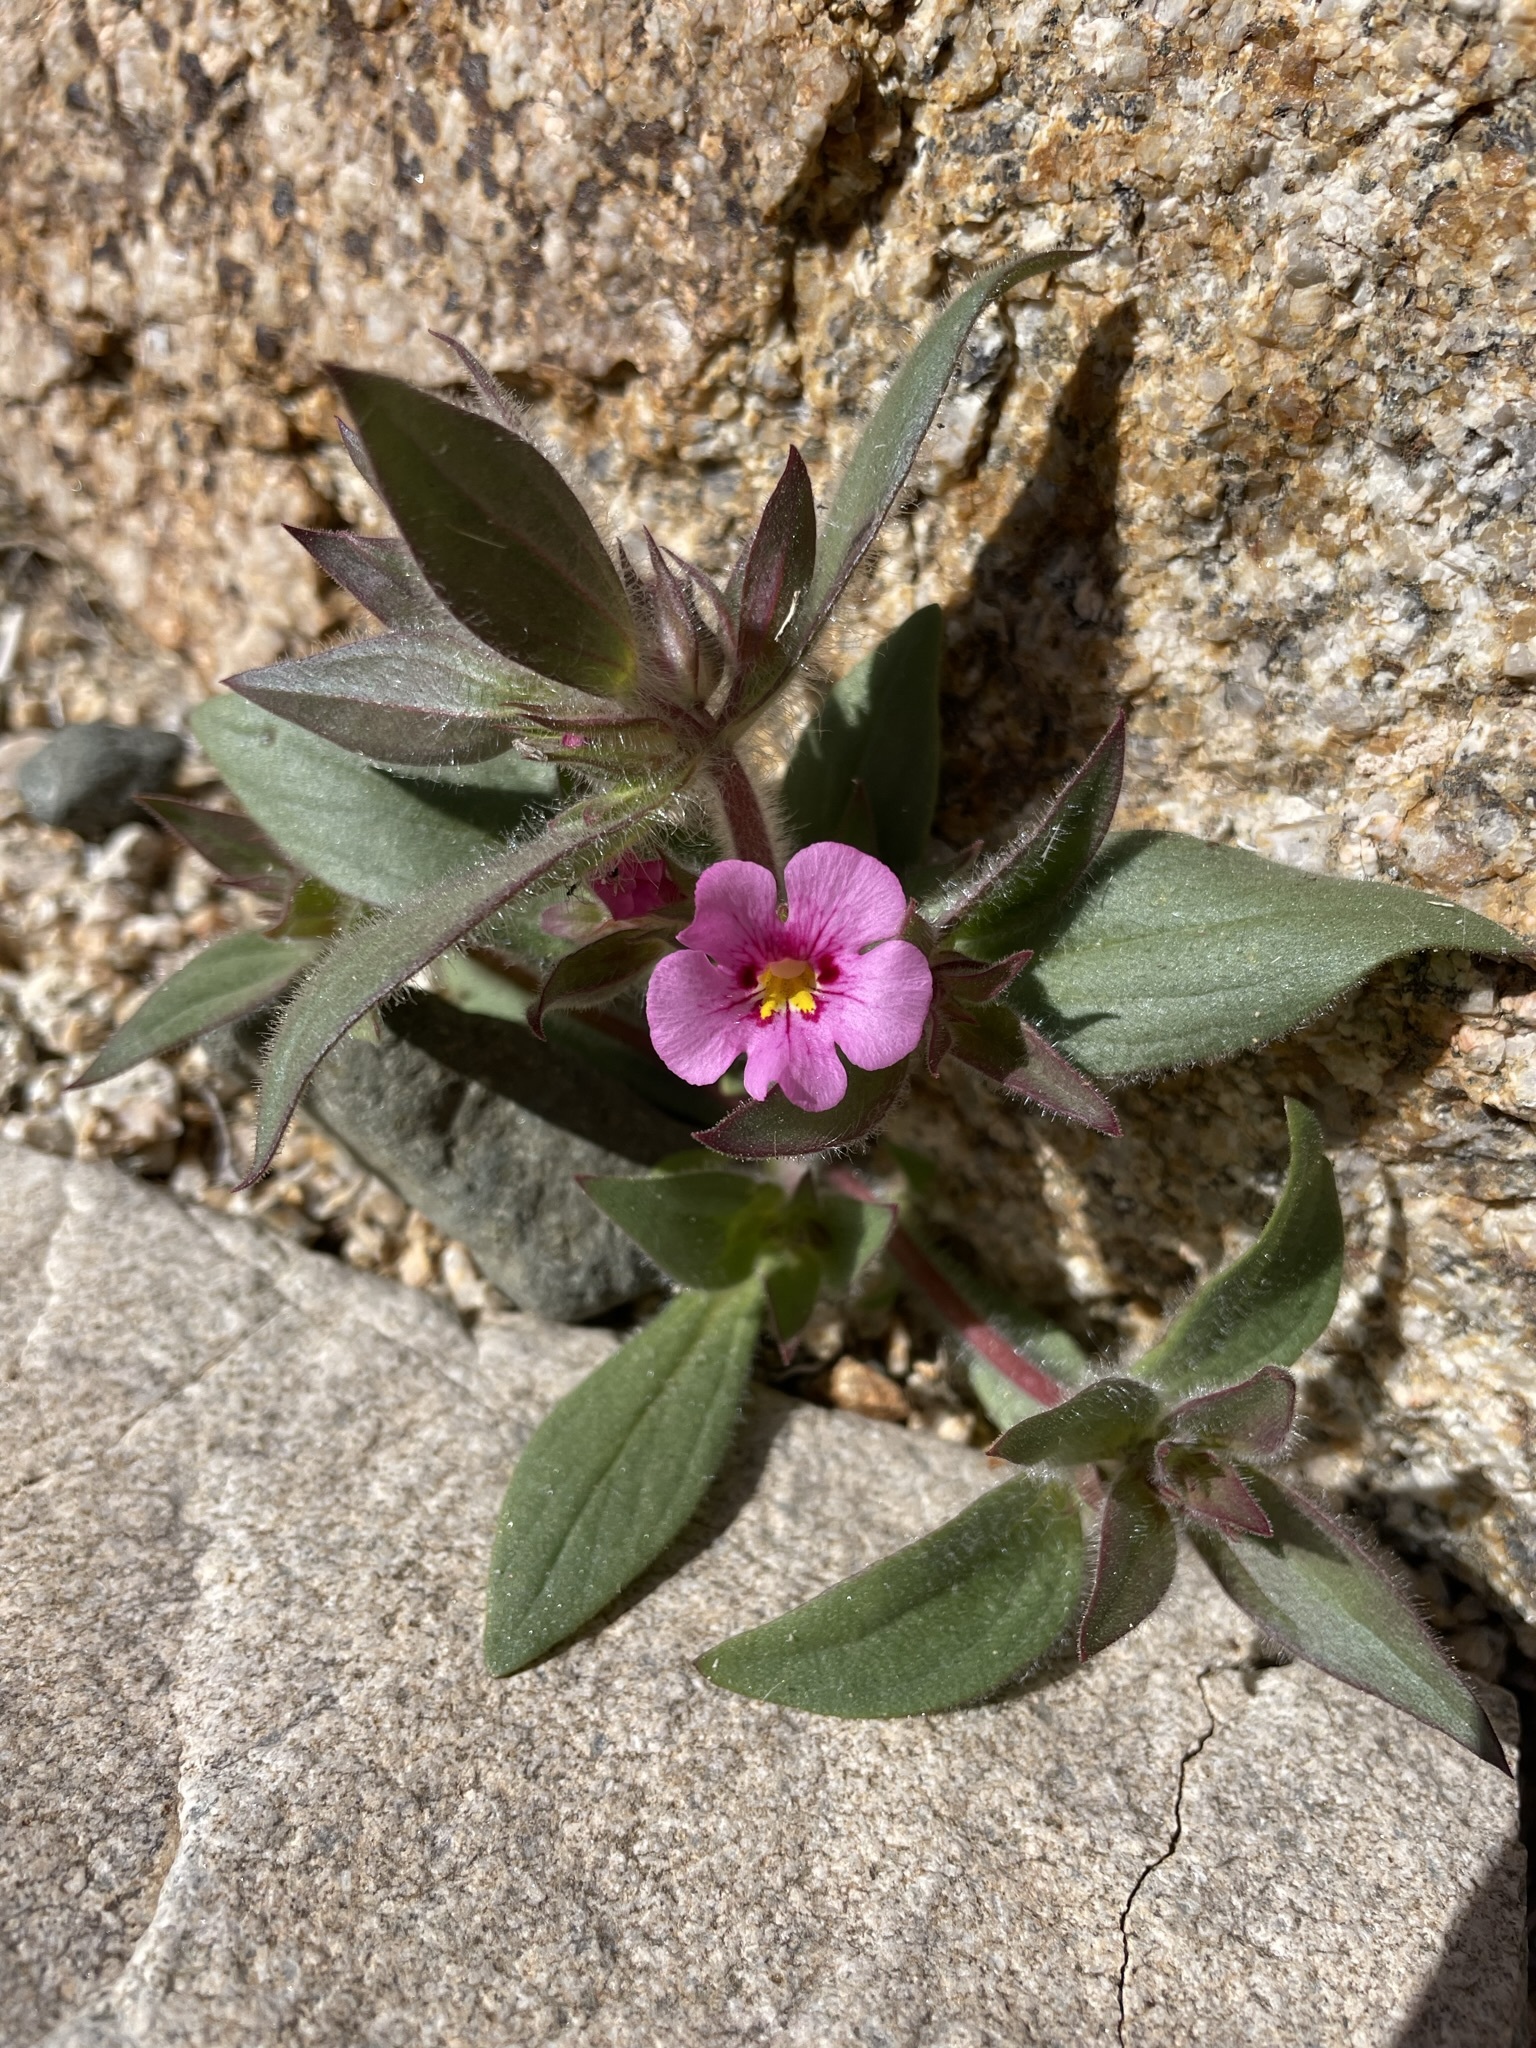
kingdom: Plantae
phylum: Tracheophyta
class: Magnoliopsida
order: Lamiales
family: Phrymaceae
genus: Diplacus
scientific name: Diplacus bigelovii
